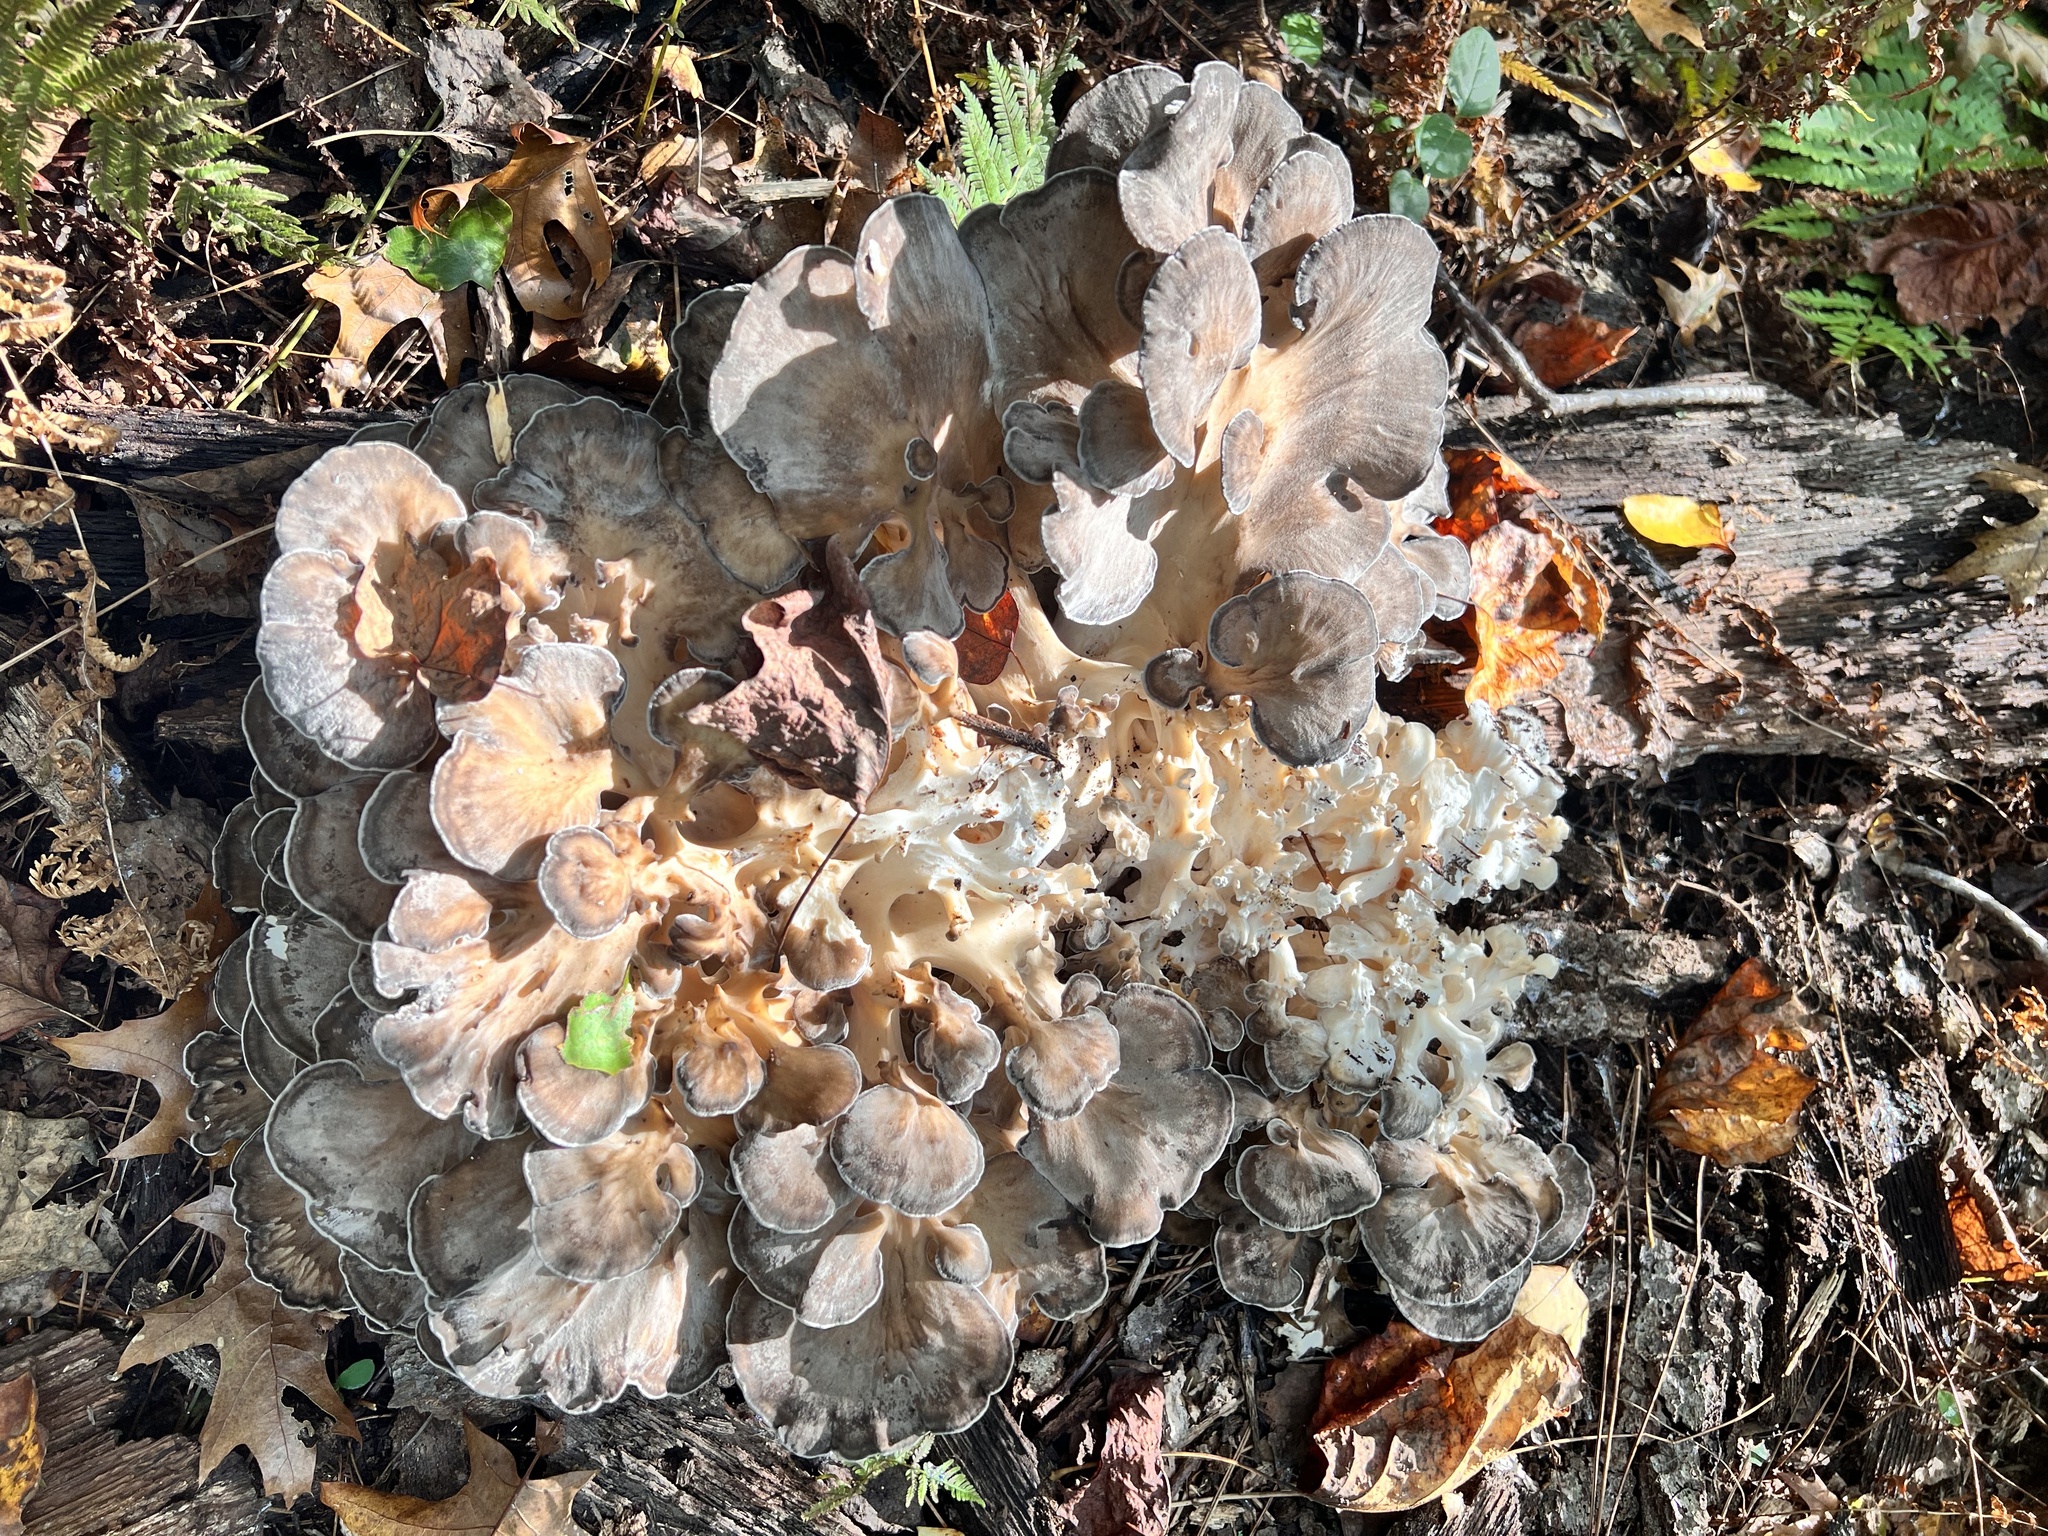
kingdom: Fungi
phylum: Basidiomycota
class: Agaricomycetes
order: Polyporales
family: Grifolaceae
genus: Grifola
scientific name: Grifola frondosa
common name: Hen of the woods
